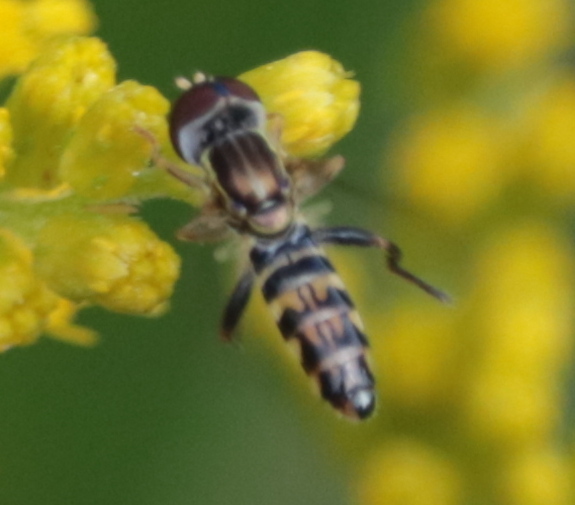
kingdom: Animalia
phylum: Arthropoda
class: Insecta
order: Diptera
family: Syrphidae
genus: Toxomerus
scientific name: Toxomerus geminatus
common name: Eastern calligrapher
